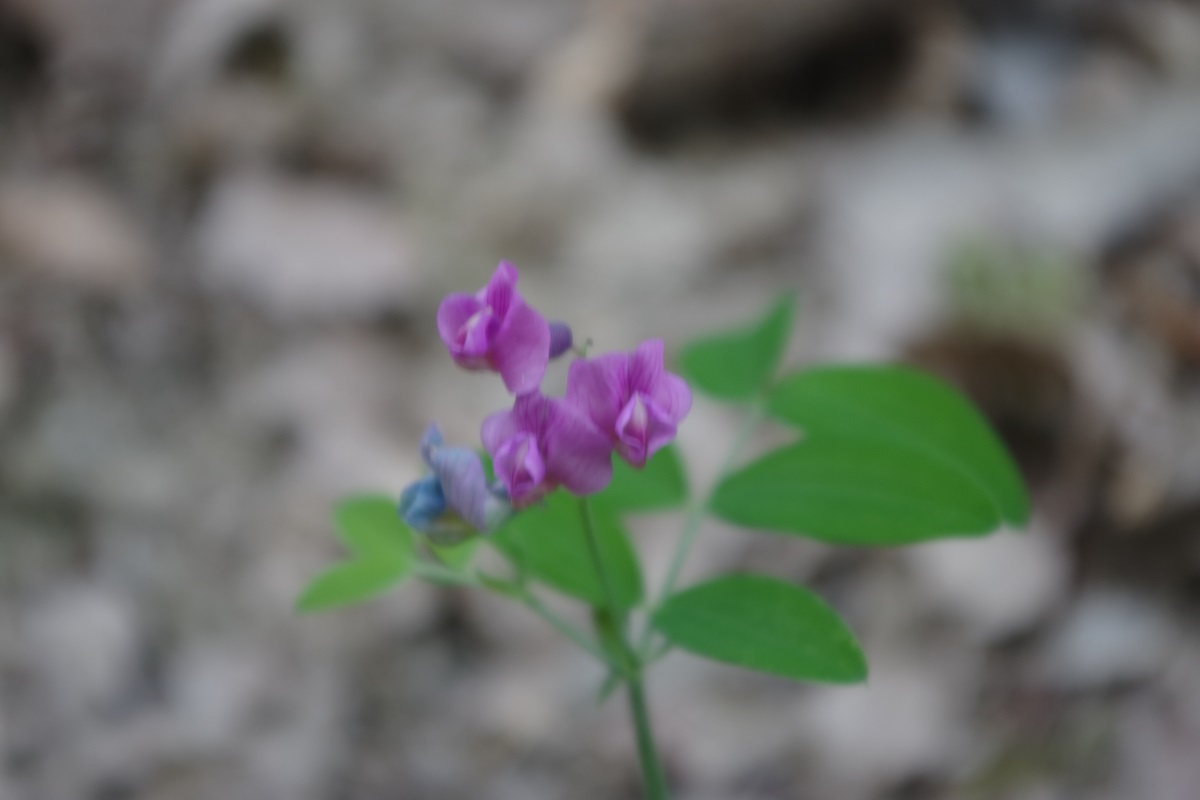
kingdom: Plantae
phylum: Tracheophyta
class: Magnoliopsida
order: Fabales
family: Fabaceae
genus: Lathyrus
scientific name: Lathyrus linifolius
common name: Bitter-vetch
